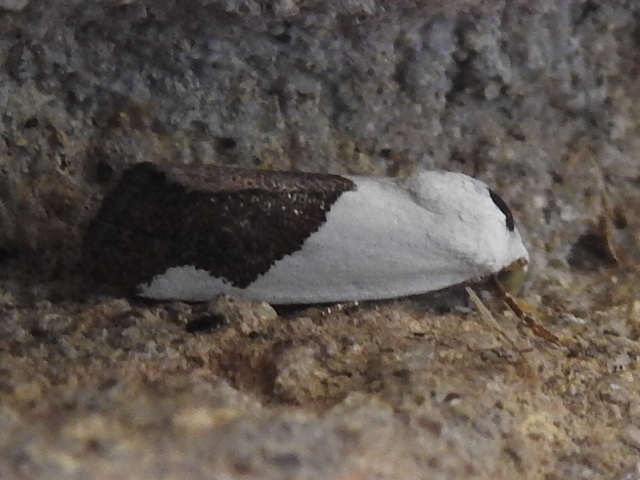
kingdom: Animalia
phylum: Arthropoda
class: Insecta
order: Lepidoptera
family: Noctuidae
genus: Acontia
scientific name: Acontia heonyx
